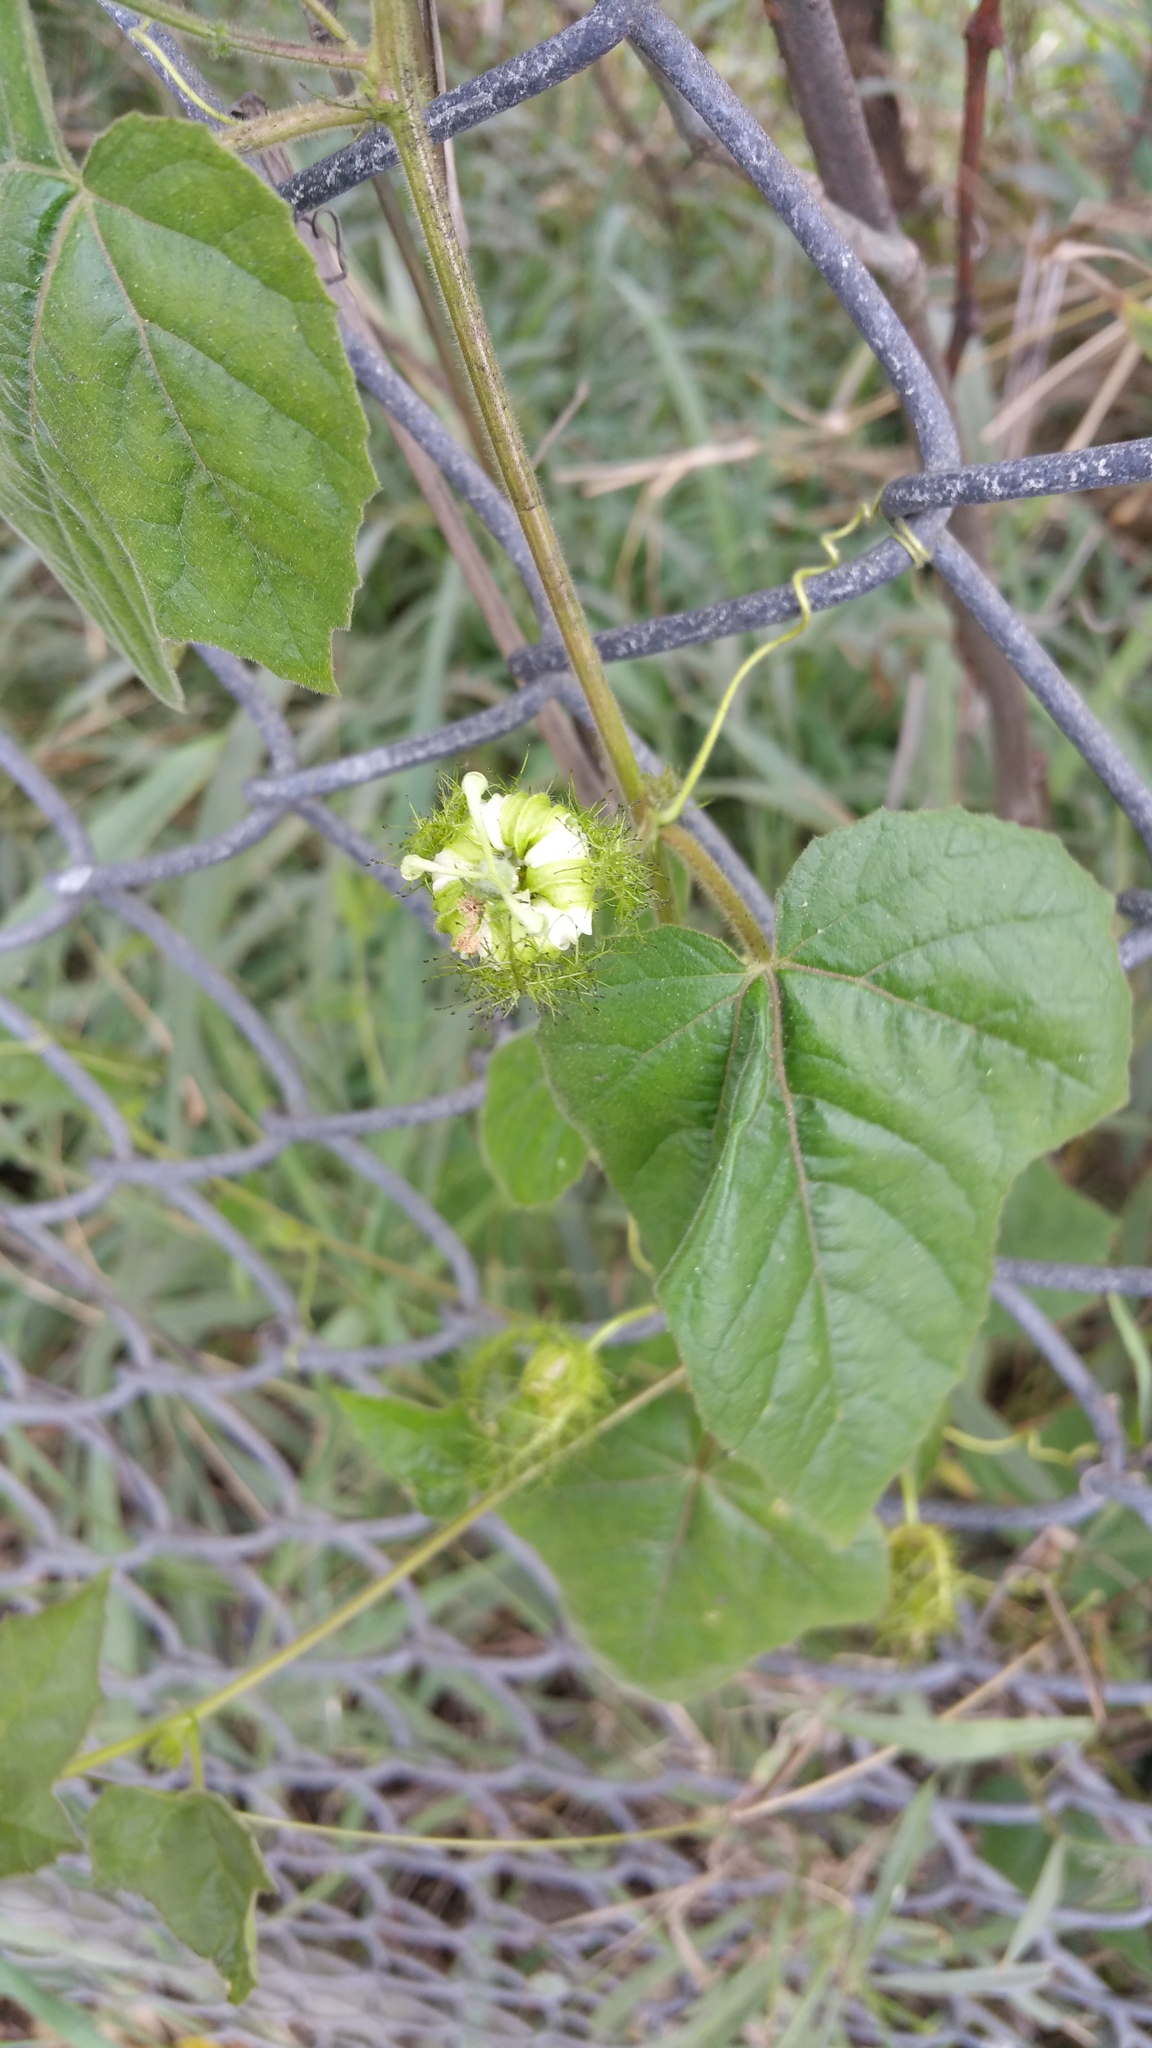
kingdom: Plantae
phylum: Tracheophyta
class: Magnoliopsida
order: Malpighiales
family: Passifloraceae
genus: Passiflora
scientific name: Passiflora foetida
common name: Fetid passionflower
